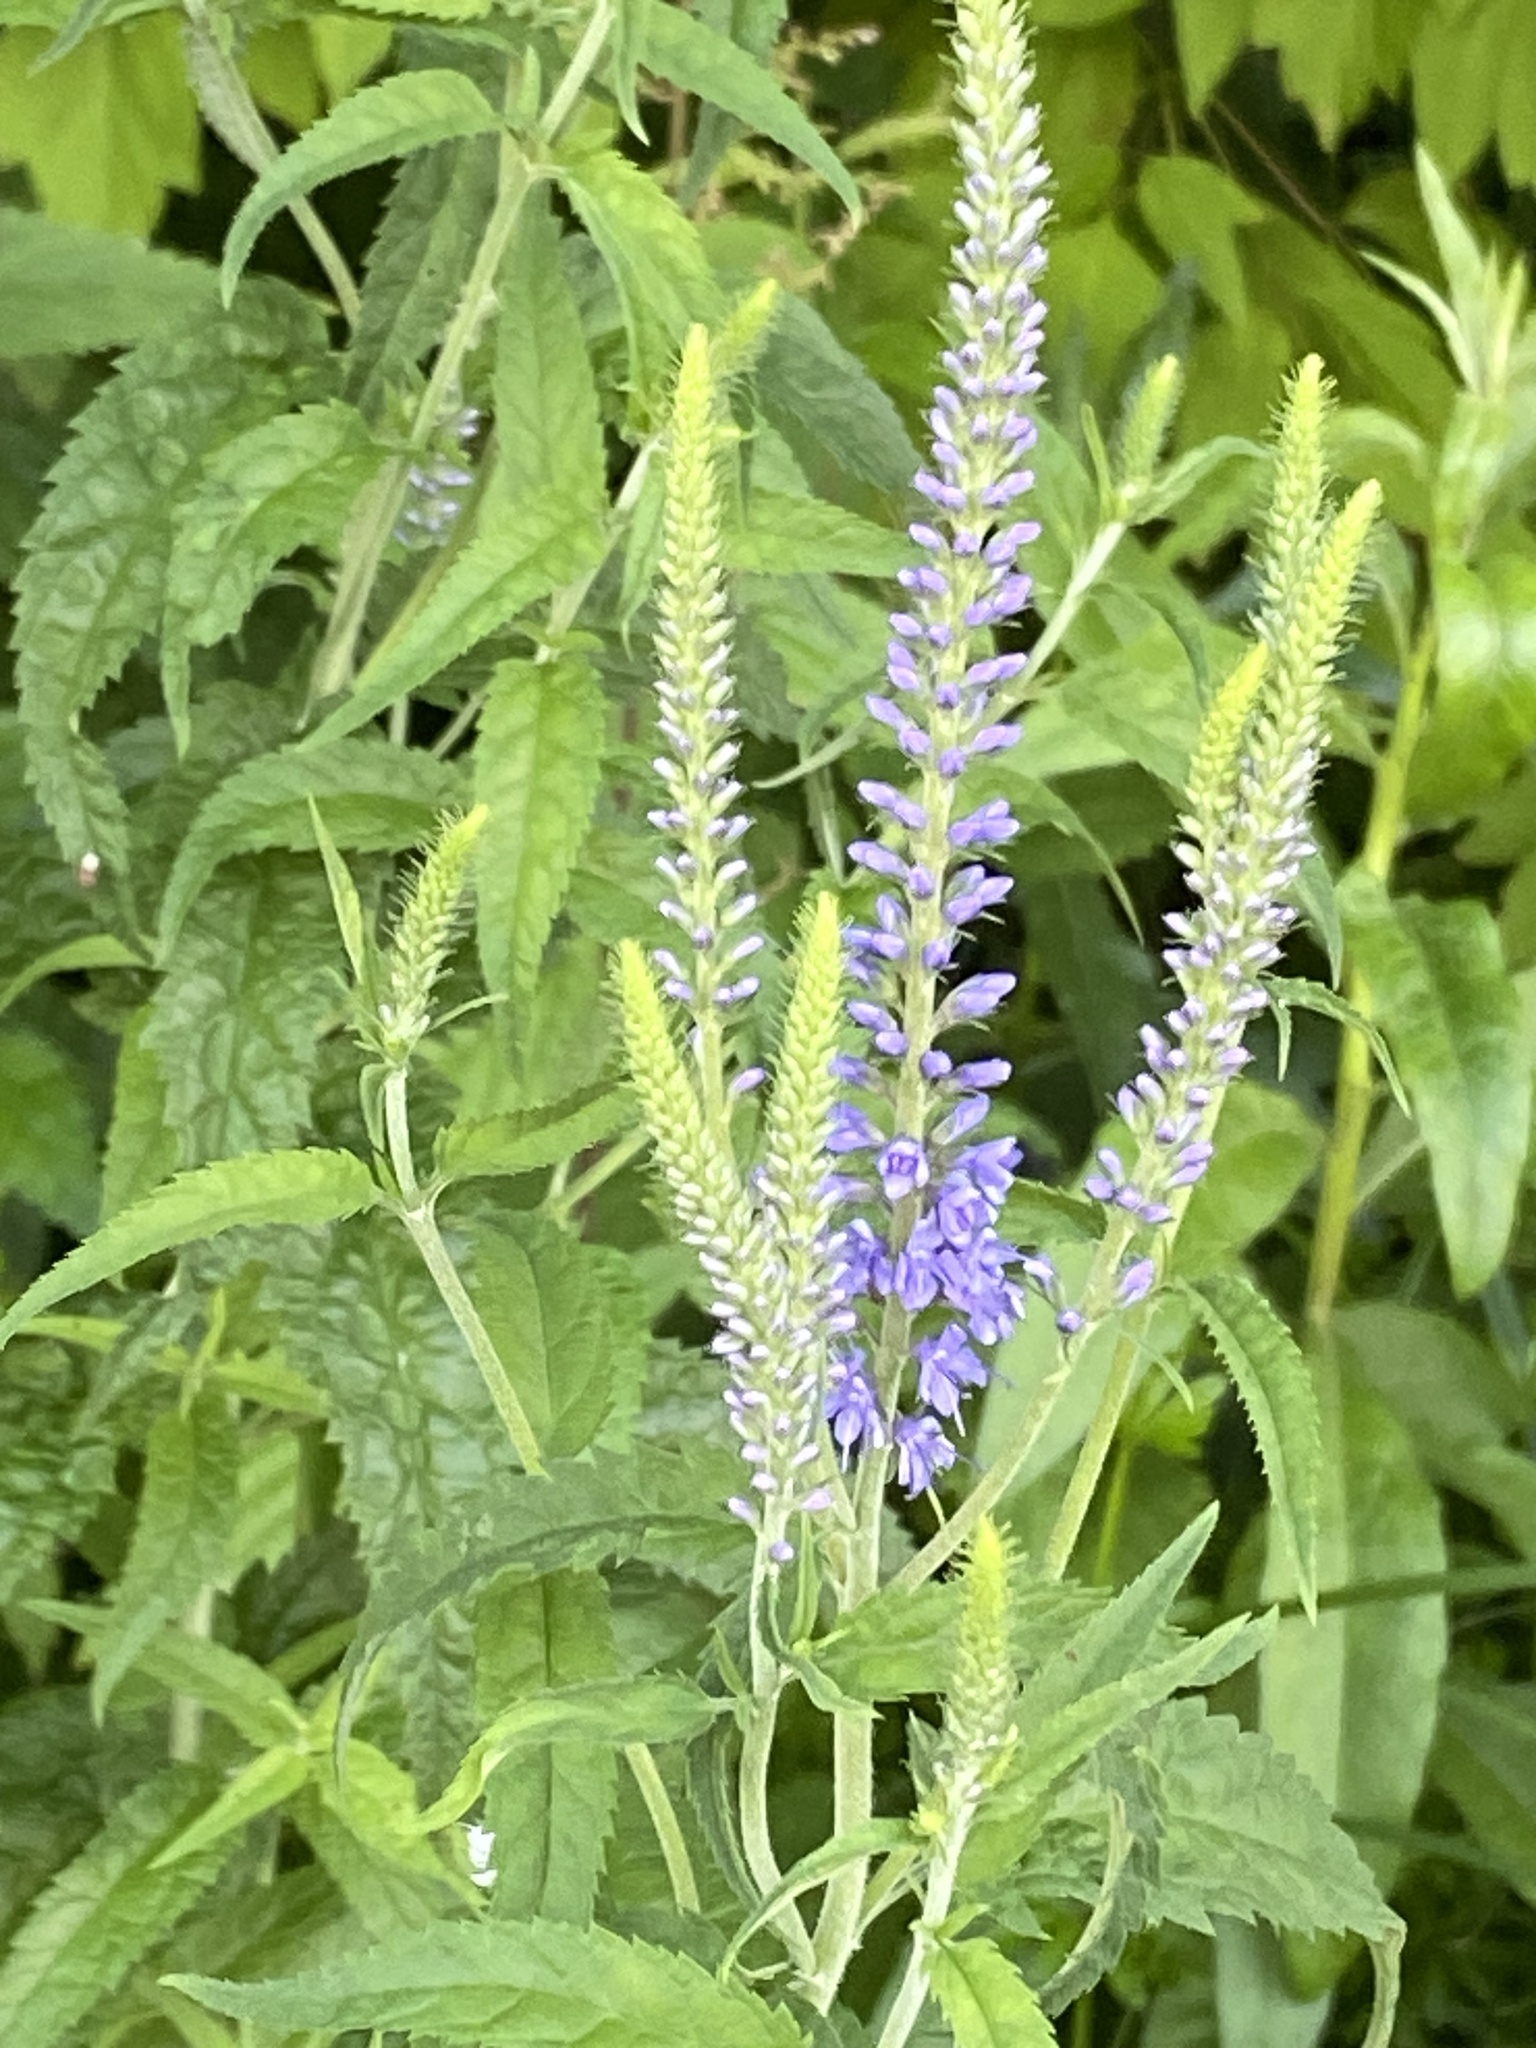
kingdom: Plantae
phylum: Tracheophyta
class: Magnoliopsida
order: Lamiales
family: Plantaginaceae
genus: Veronica
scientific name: Veronica longifolia
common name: Garden speedwell
